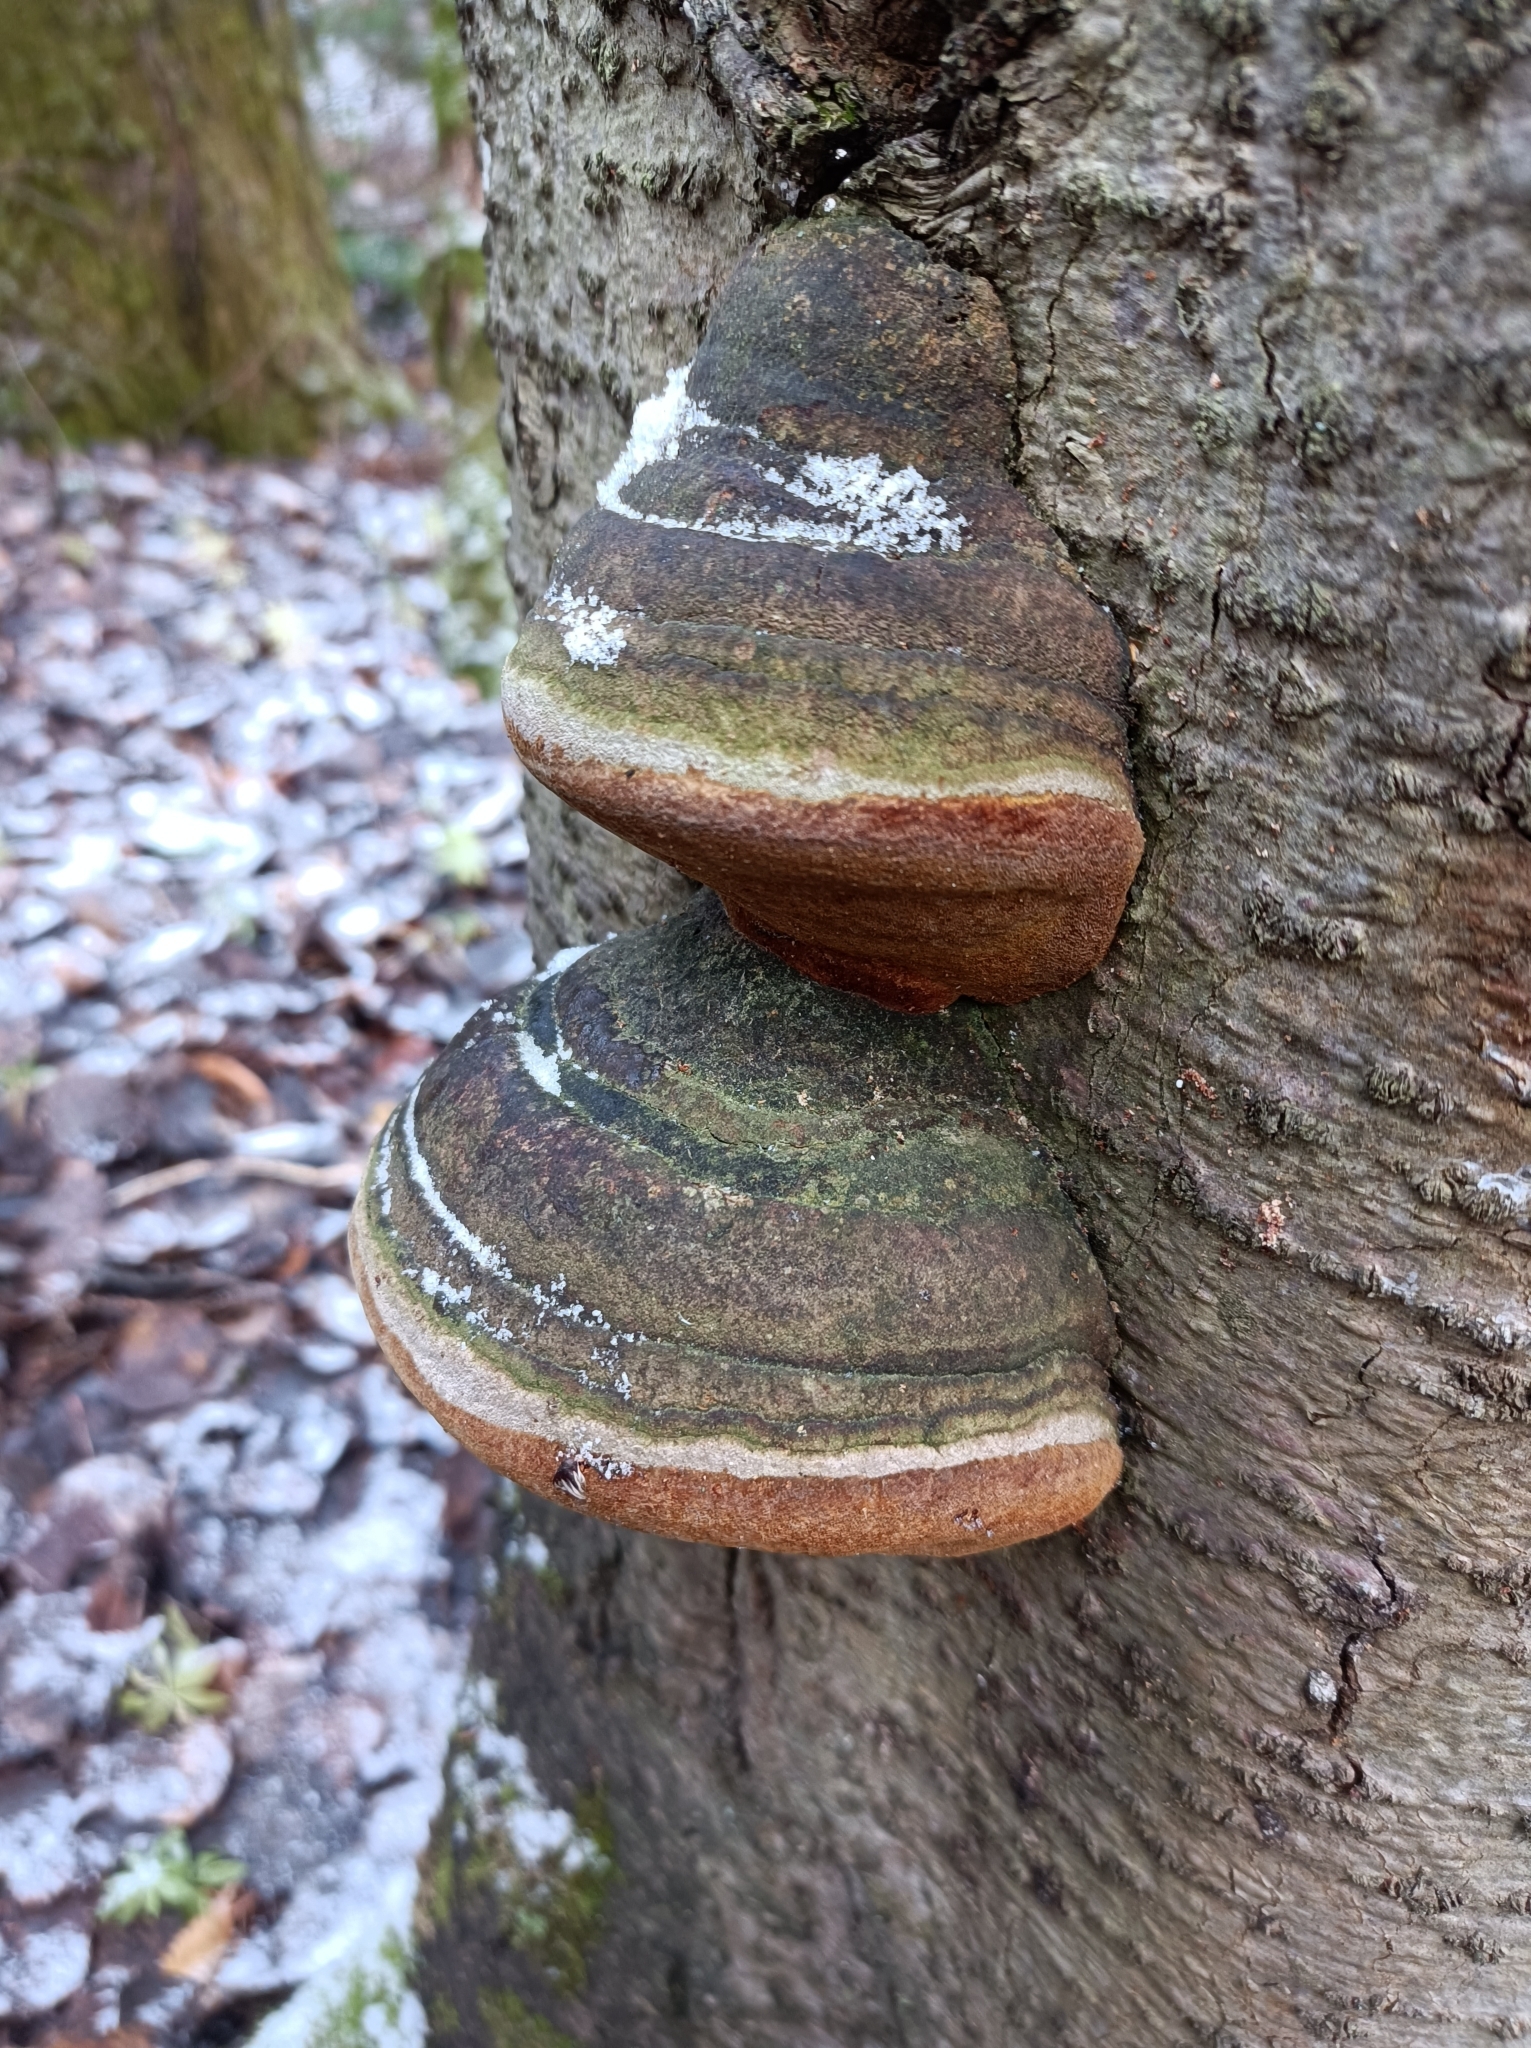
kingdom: Fungi
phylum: Basidiomycota
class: Agaricomycetes
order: Hymenochaetales
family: Hymenochaetaceae
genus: Phellinus
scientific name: Phellinus hartigii
